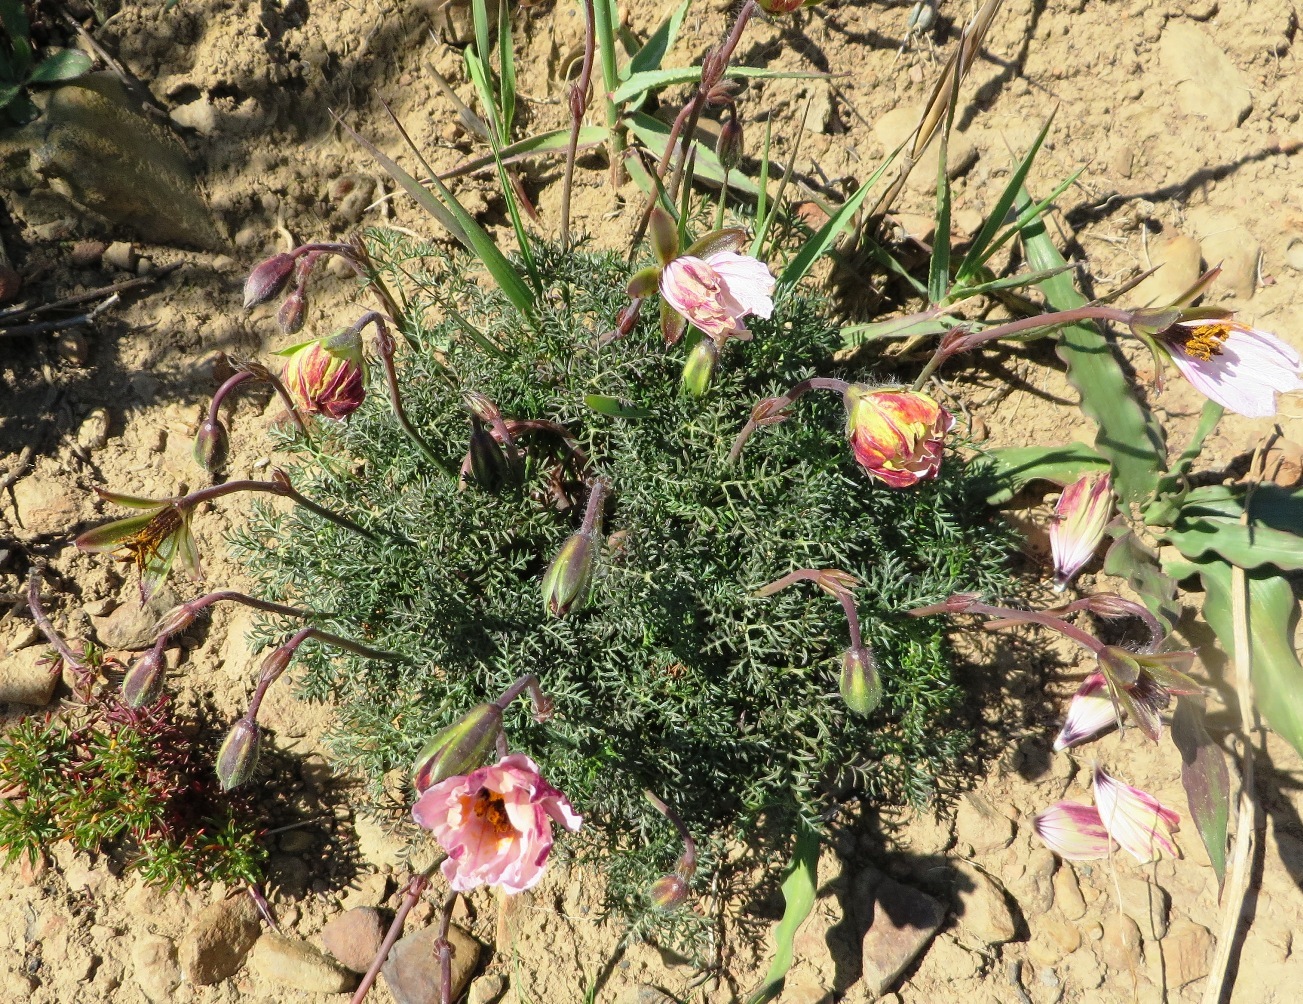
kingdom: Plantae
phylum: Tracheophyta
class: Magnoliopsida
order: Geraniales
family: Geraniaceae
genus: Monsonia
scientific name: Monsonia speciosa
